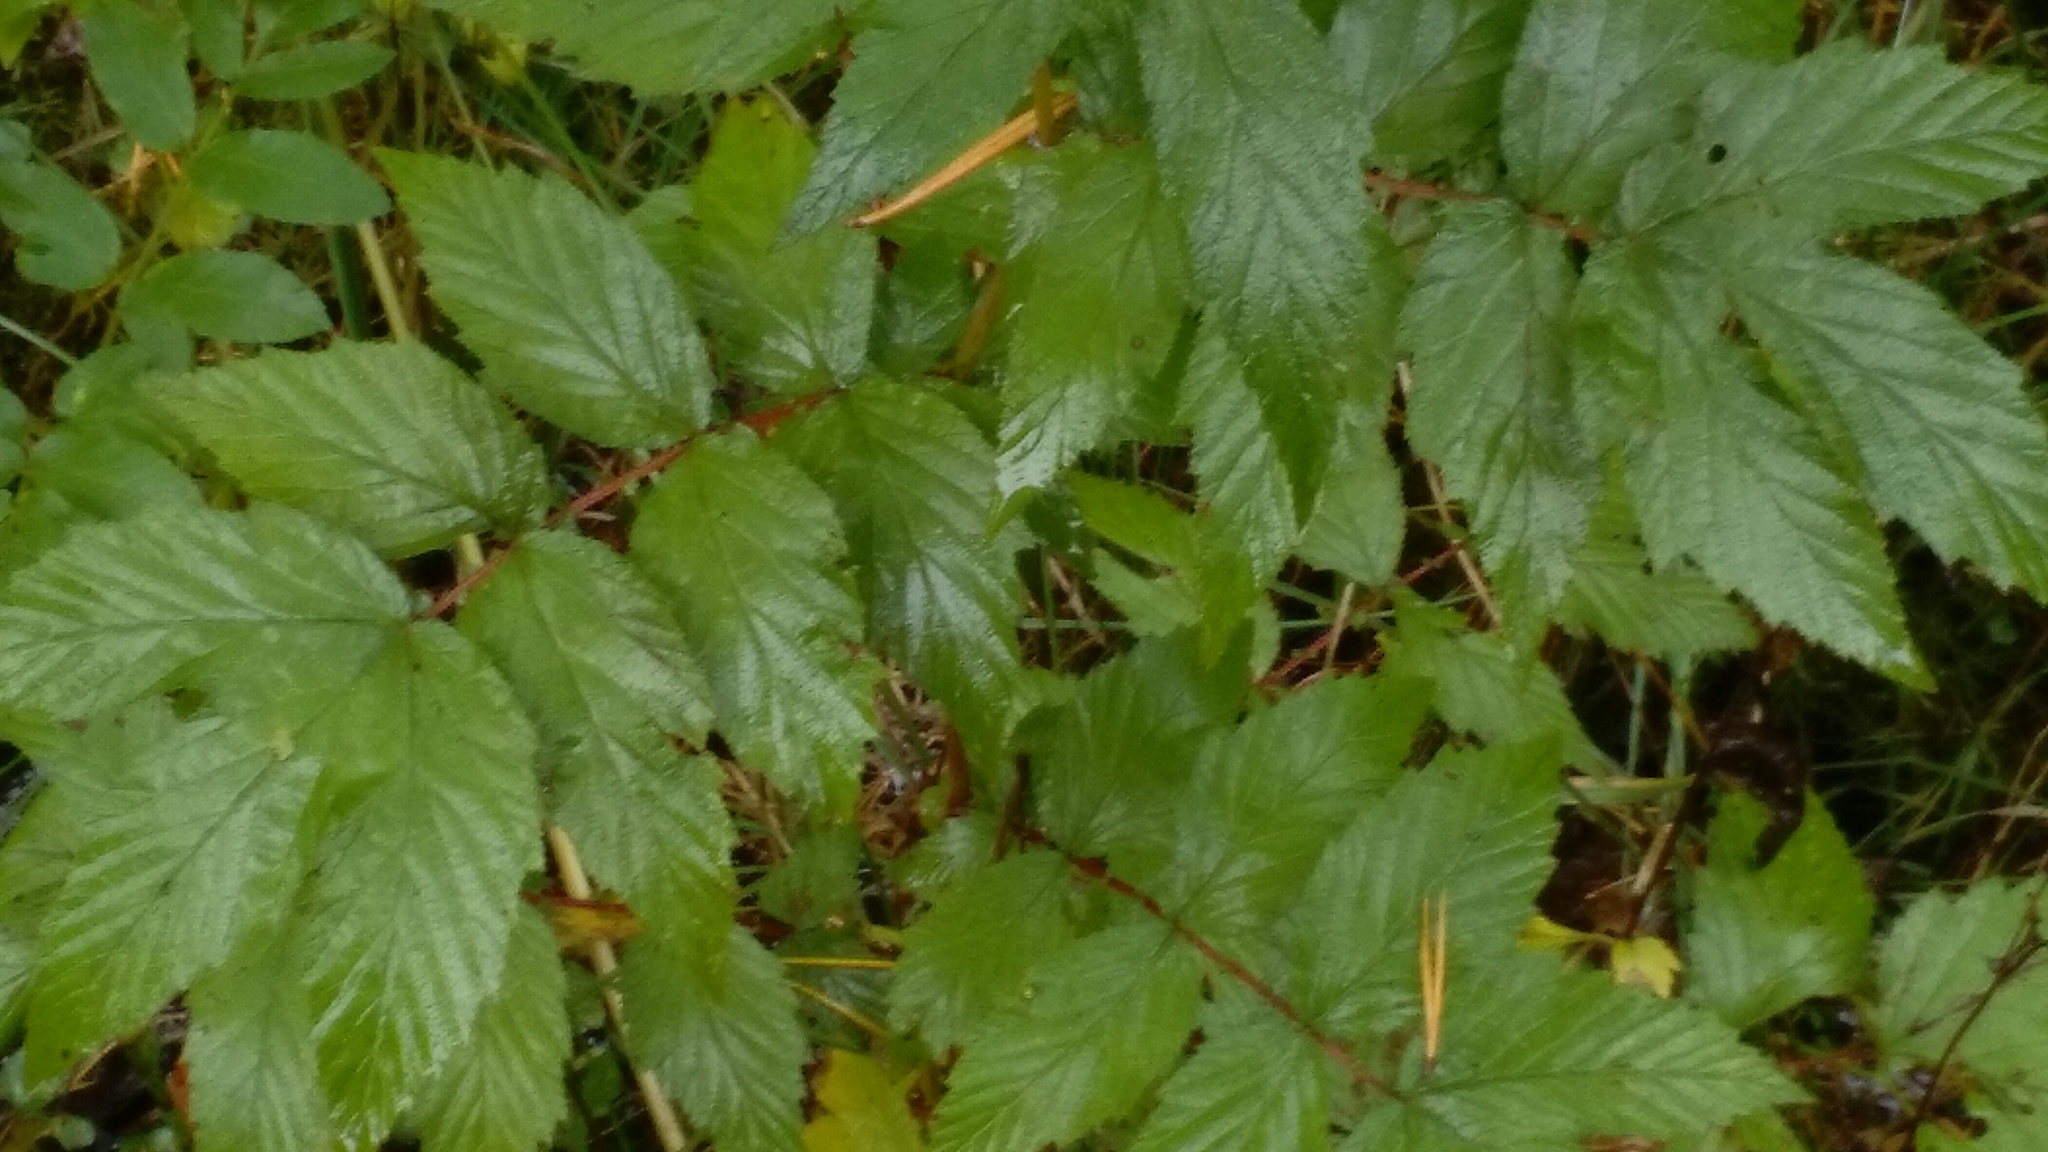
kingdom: Plantae
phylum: Tracheophyta
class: Magnoliopsida
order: Rosales
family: Rosaceae
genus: Filipendula
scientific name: Filipendula ulmaria
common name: Meadowsweet
